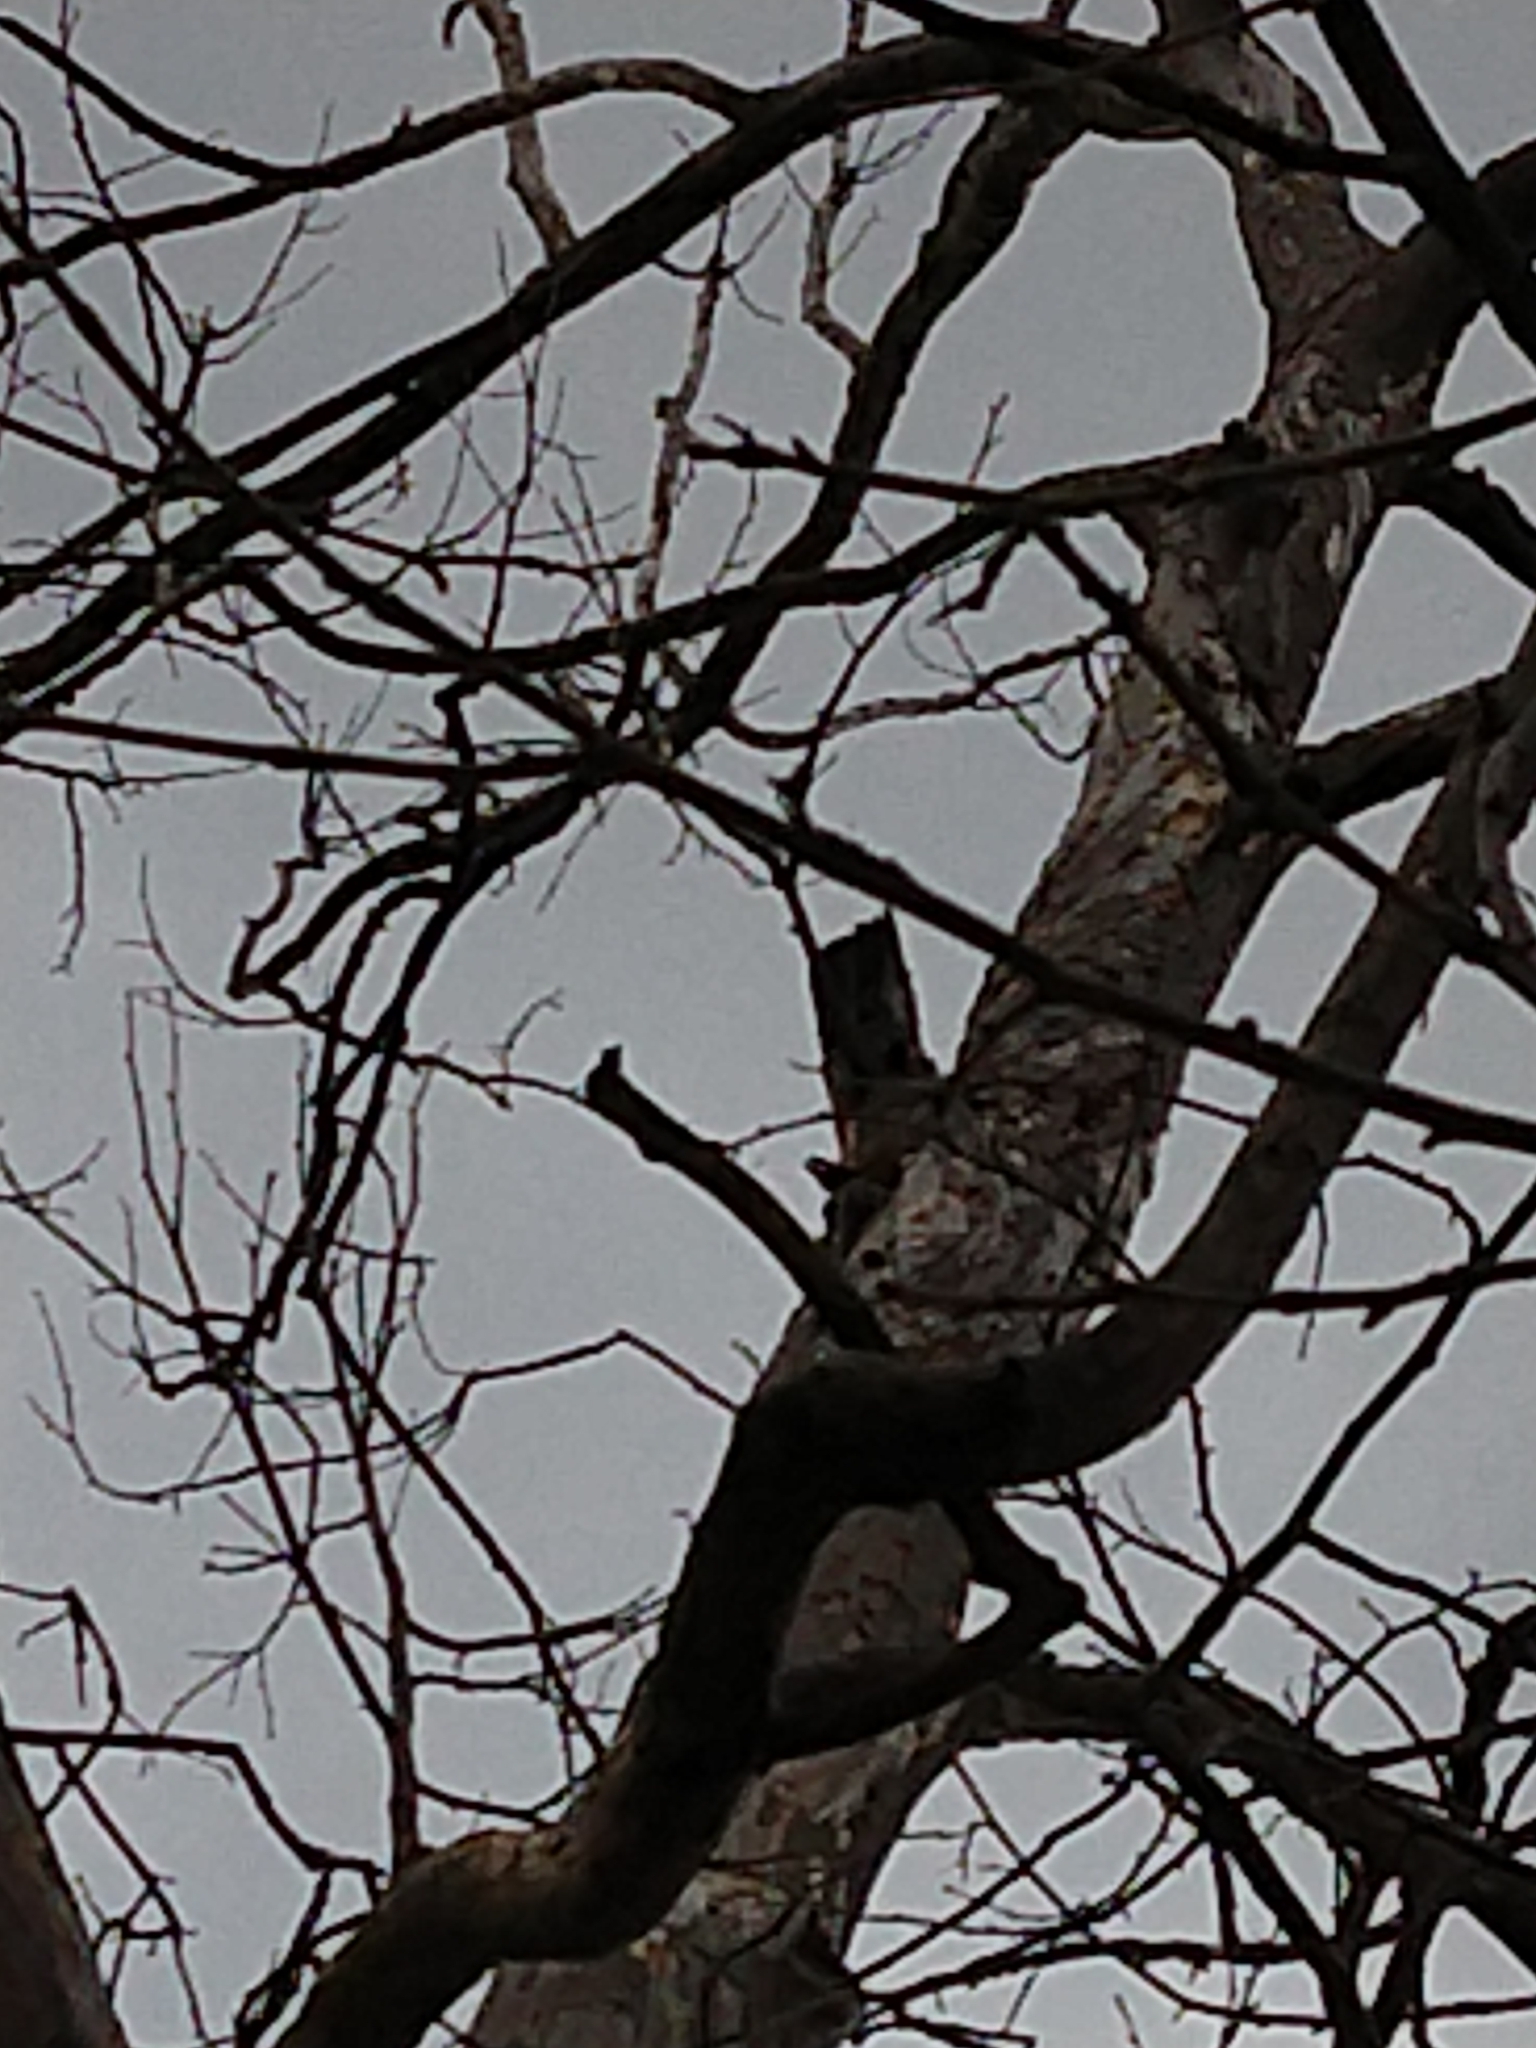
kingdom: Animalia
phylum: Chordata
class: Aves
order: Piciformes
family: Picidae
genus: Melanerpes
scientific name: Melanerpes carolinus
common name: Red-bellied woodpecker
